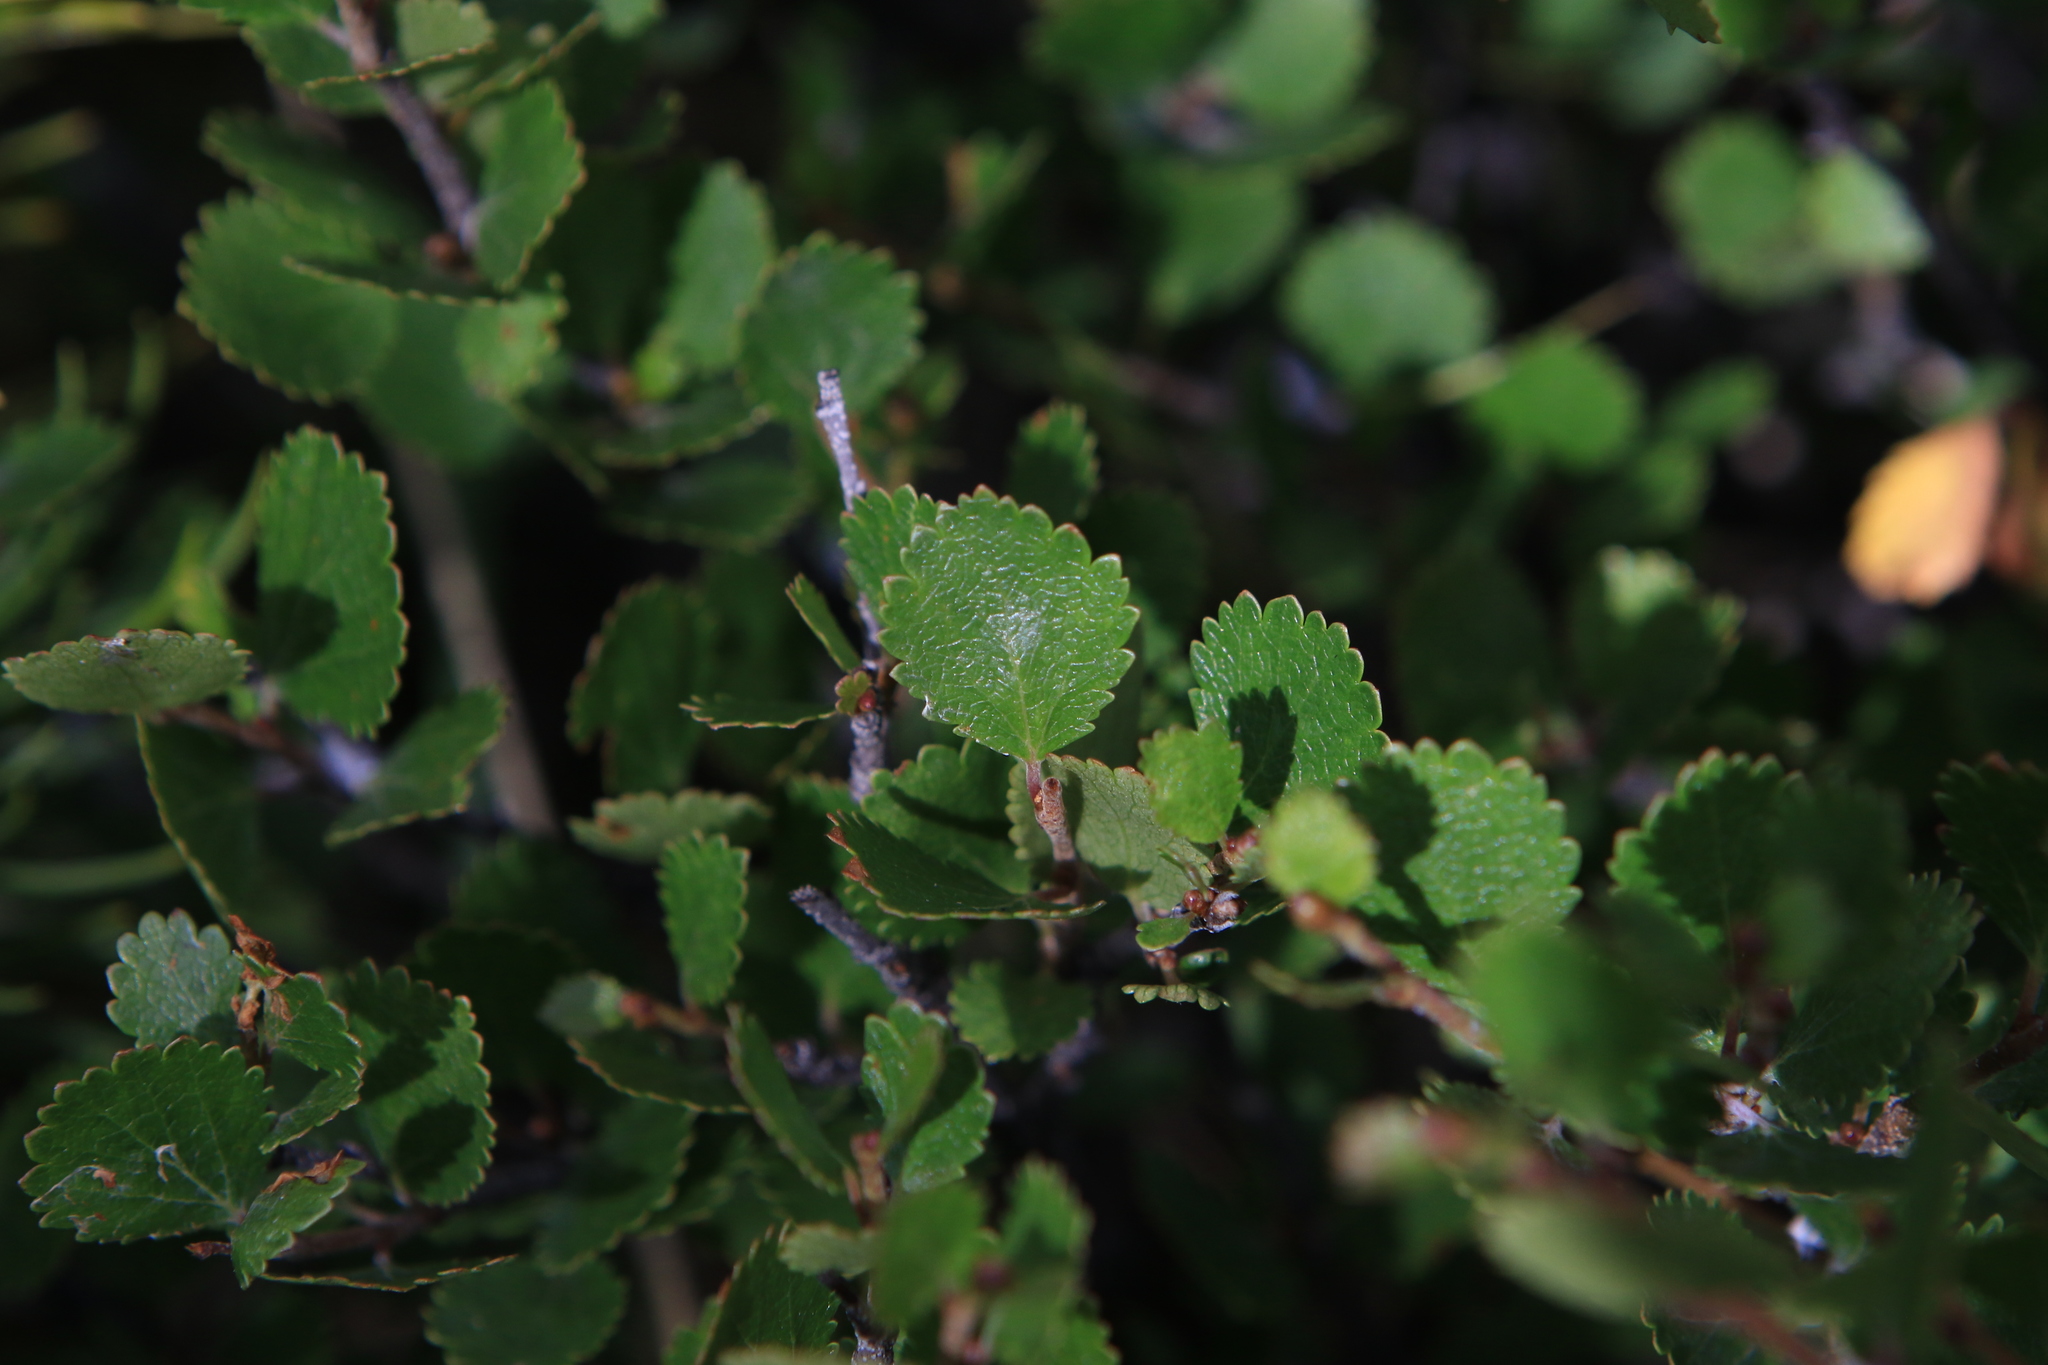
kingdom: Plantae
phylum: Tracheophyta
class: Magnoliopsida
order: Fagales
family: Betulaceae
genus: Betula
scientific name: Betula nana
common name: Arctic dwarf birch
